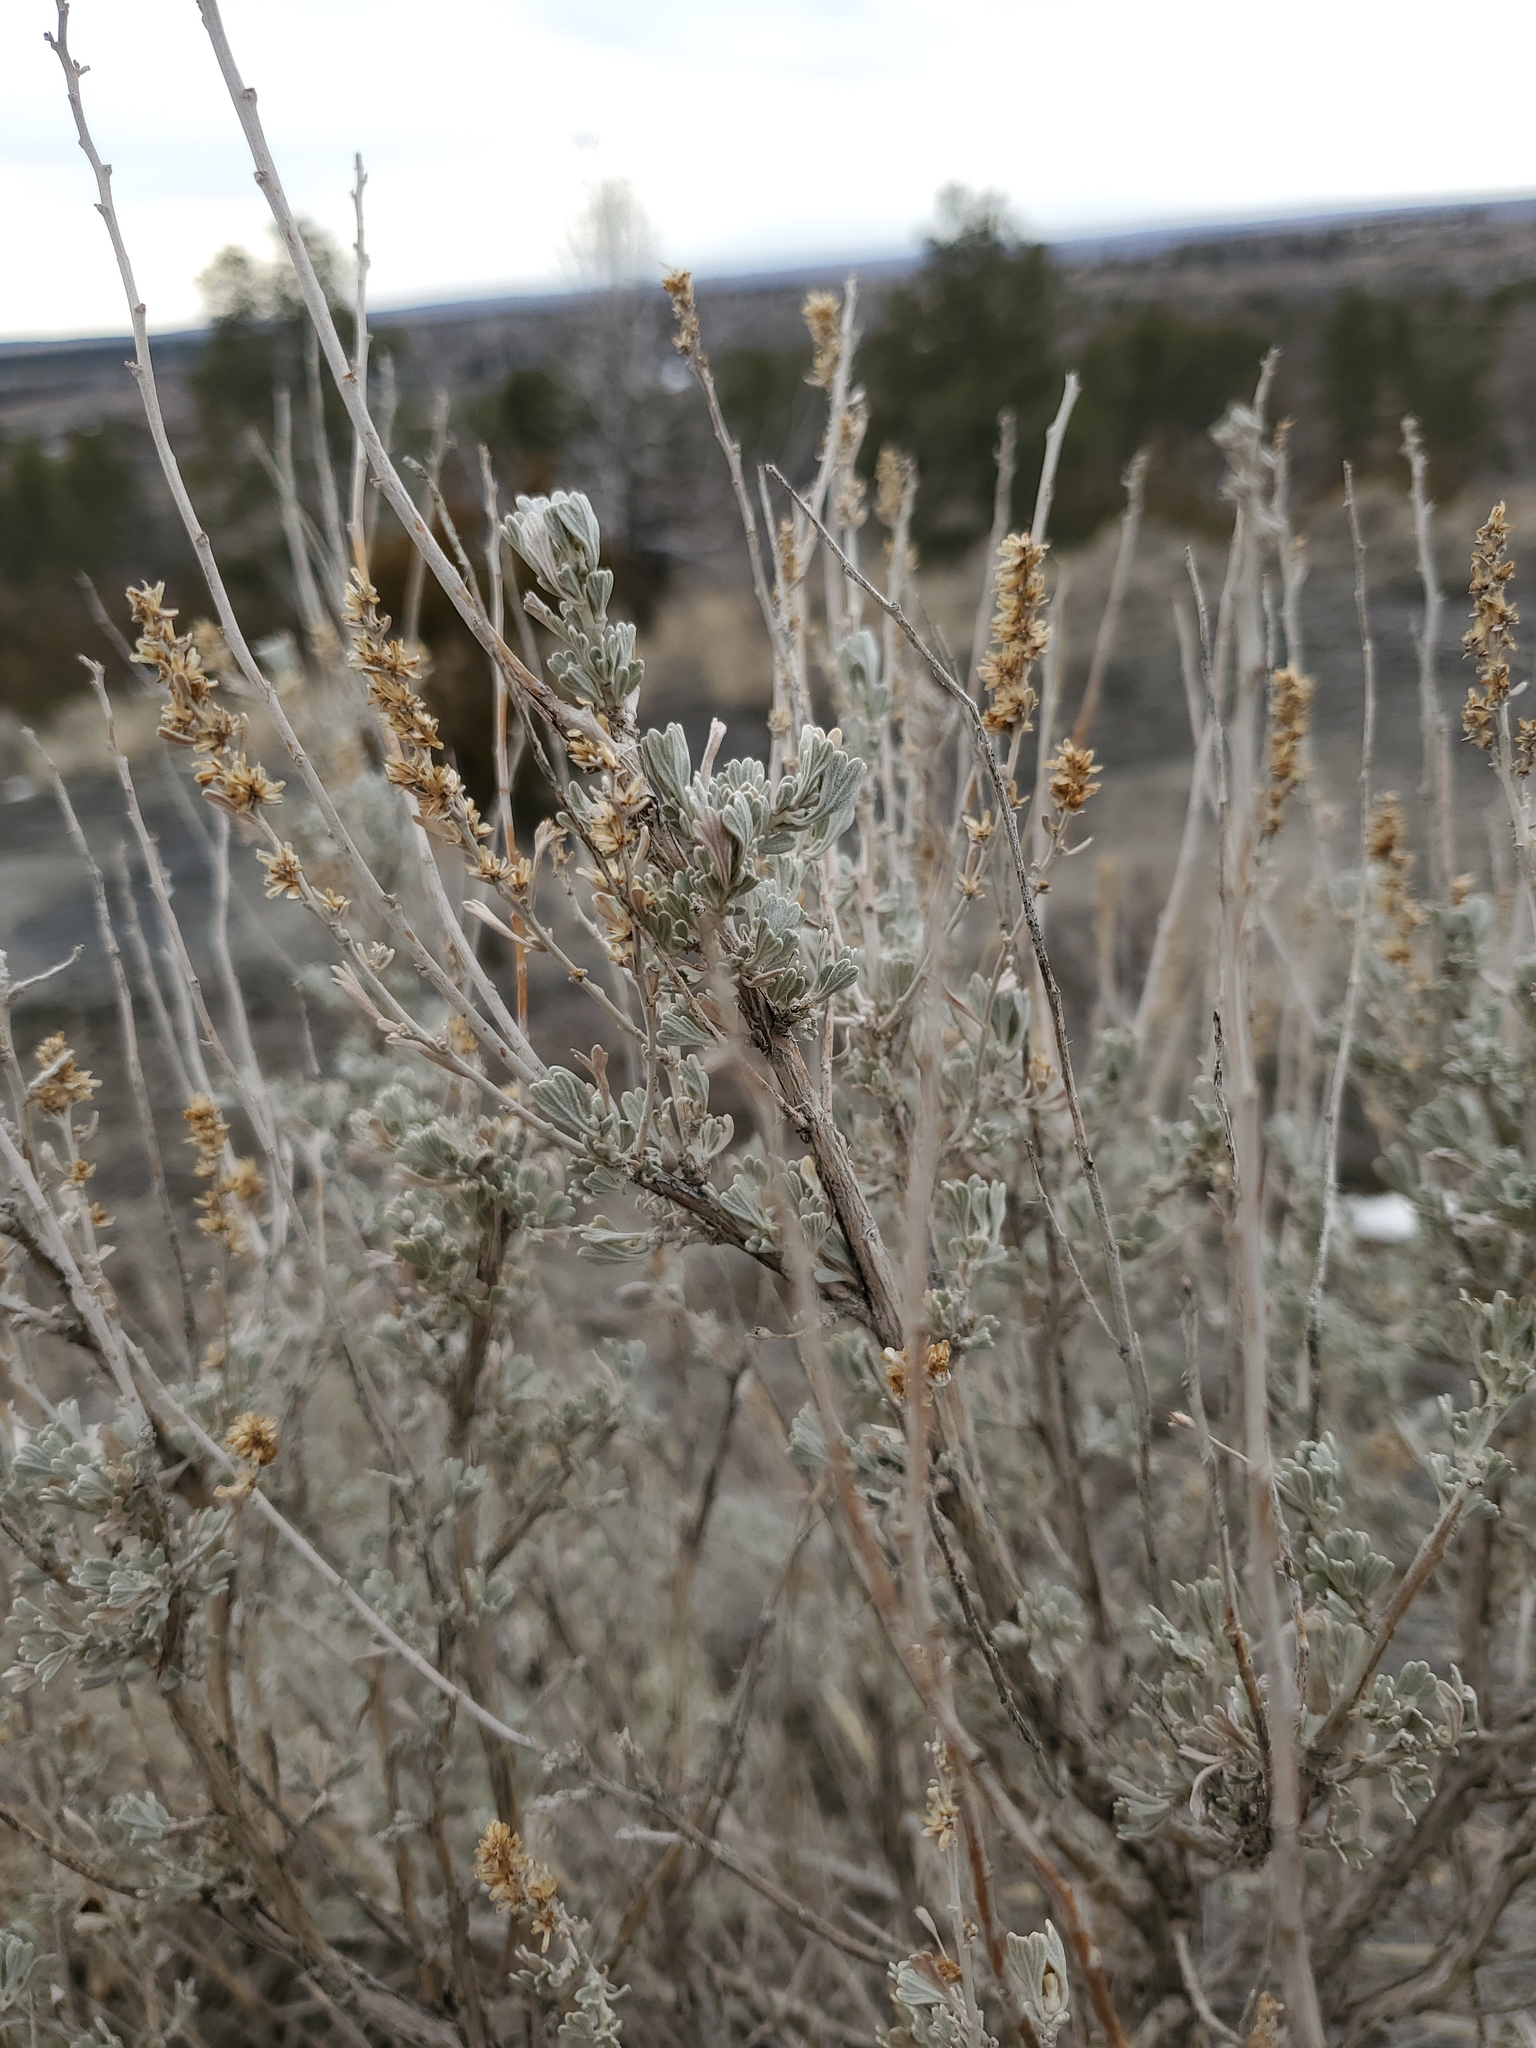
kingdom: Plantae
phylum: Tracheophyta
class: Magnoliopsida
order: Asterales
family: Asteraceae
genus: Artemisia
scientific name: Artemisia tridentata
